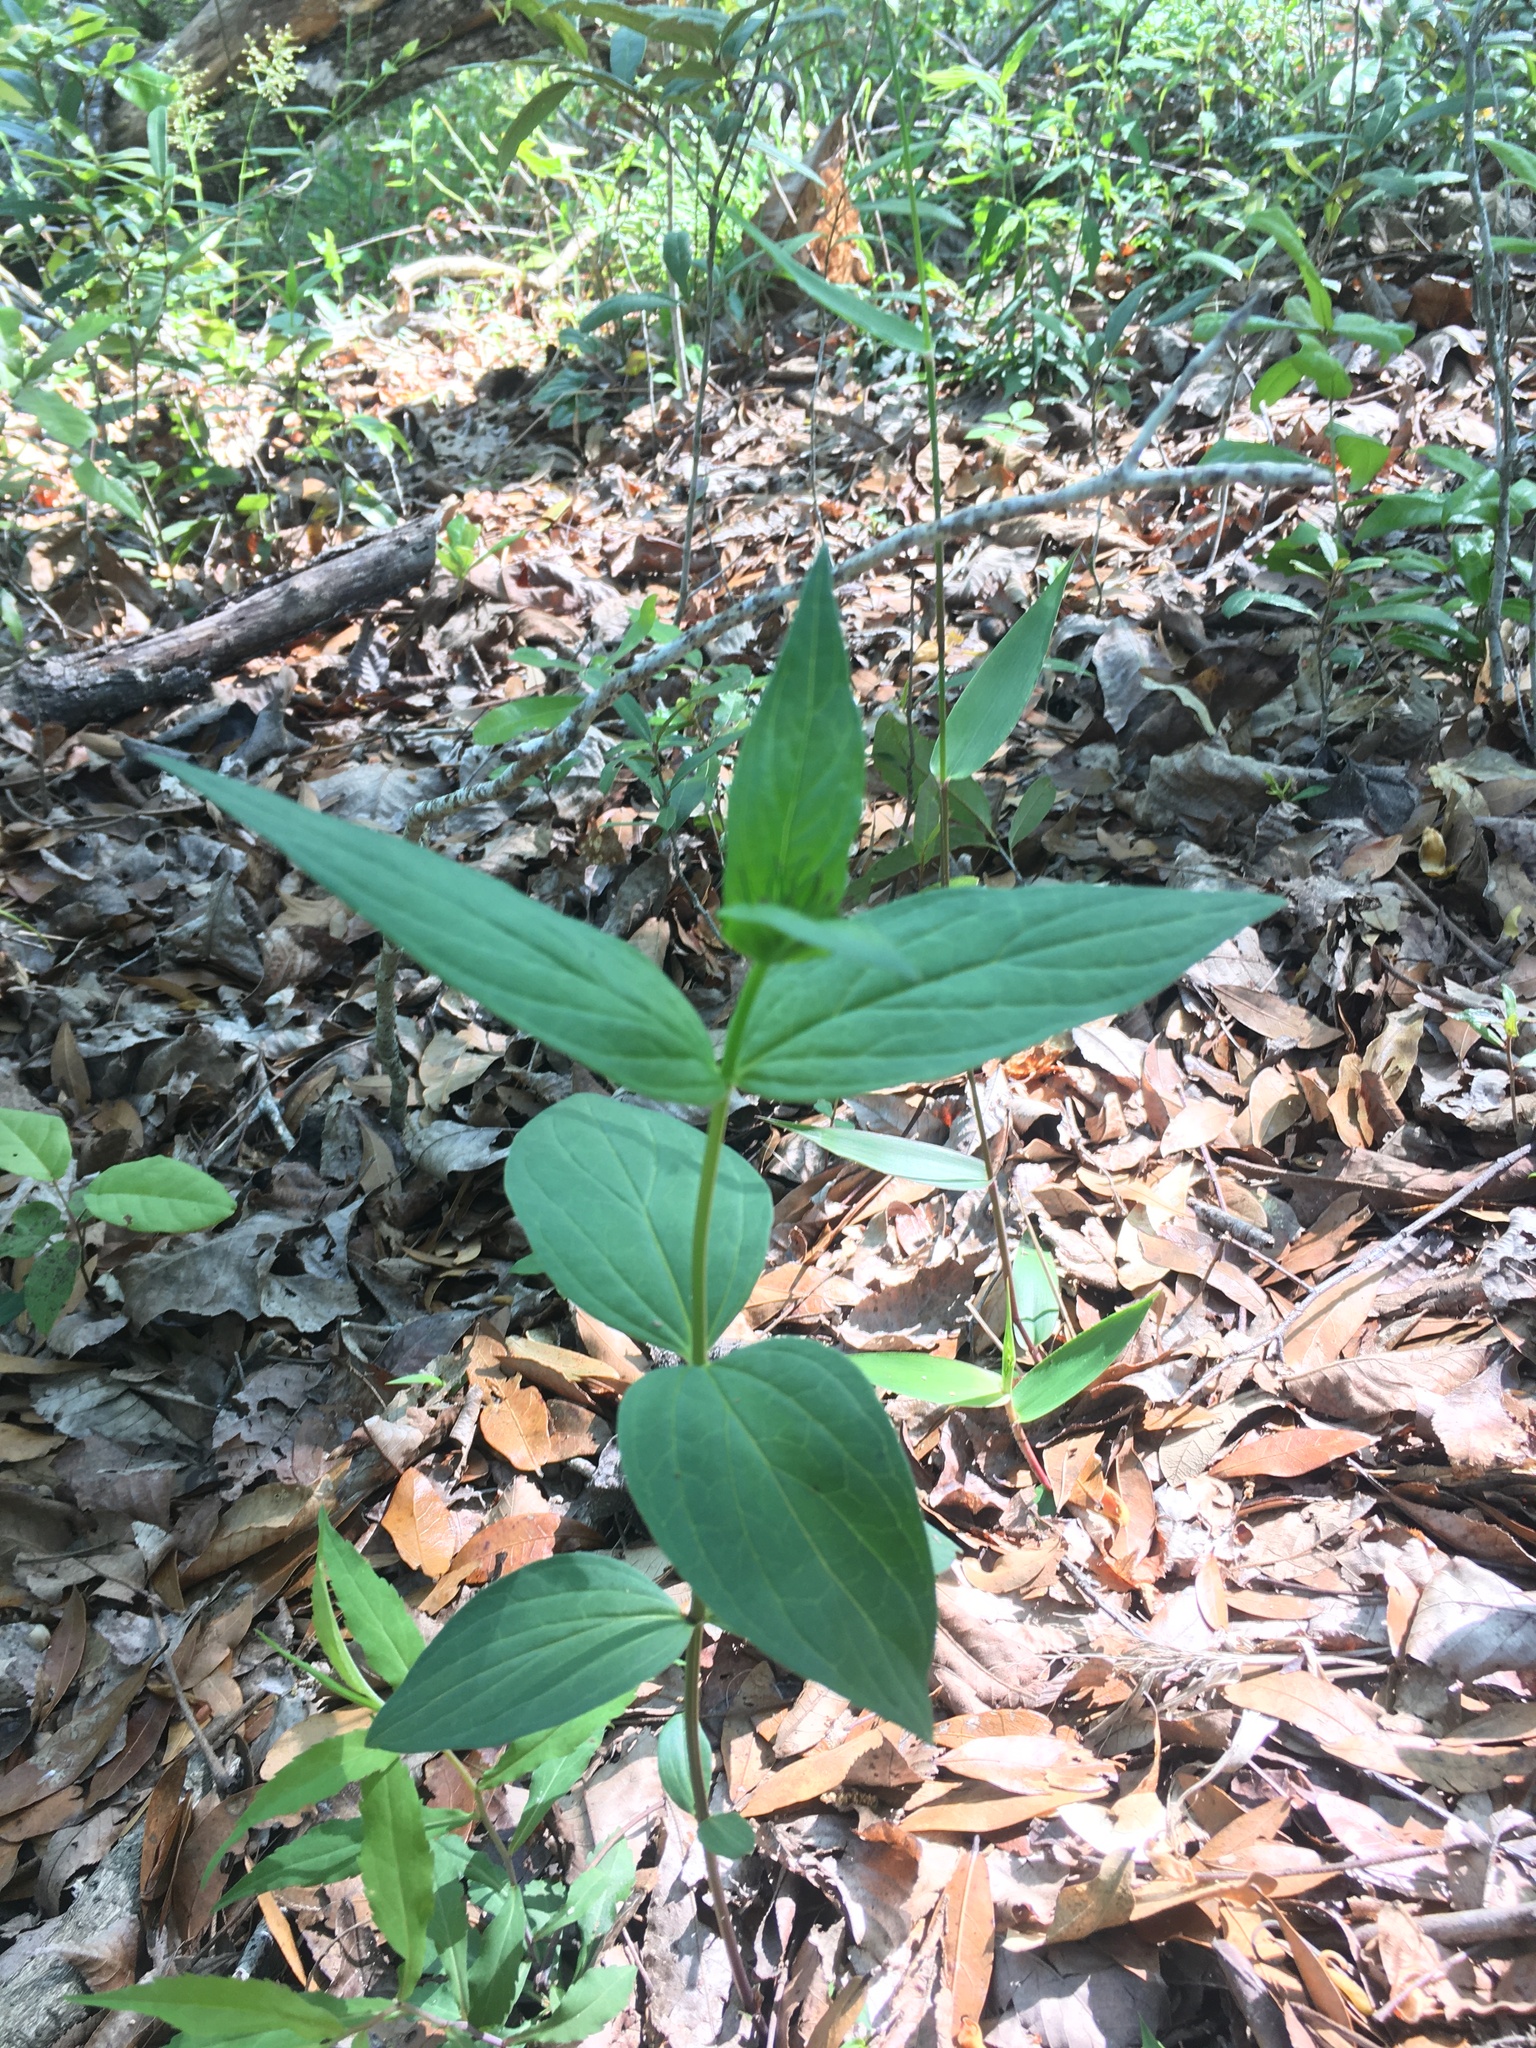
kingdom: Plantae
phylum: Tracheophyta
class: Magnoliopsida
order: Gentianales
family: Loganiaceae
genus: Spigelia
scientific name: Spigelia marilandica
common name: Indian-pink
